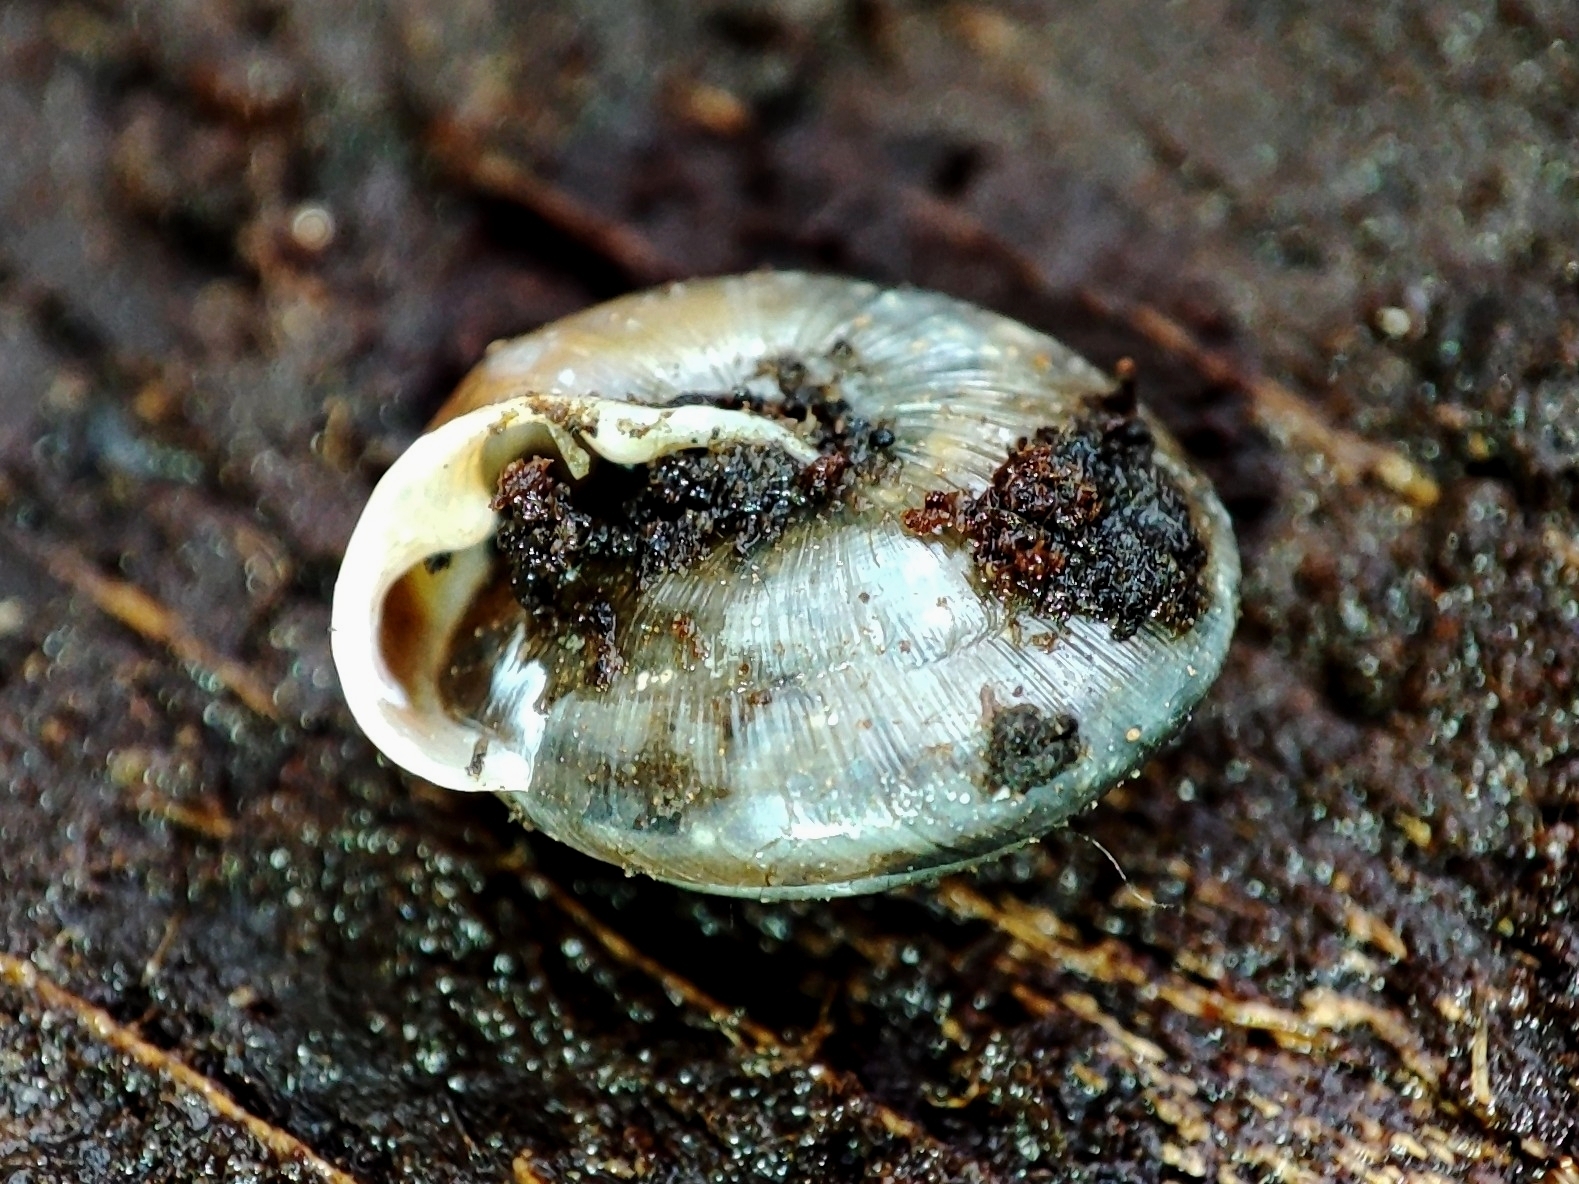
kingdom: Animalia
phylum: Mollusca
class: Gastropoda
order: Stylommatophora
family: Hygromiidae
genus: Perforatella
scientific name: Perforatella bidentata
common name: Double-tooth hairy snail
